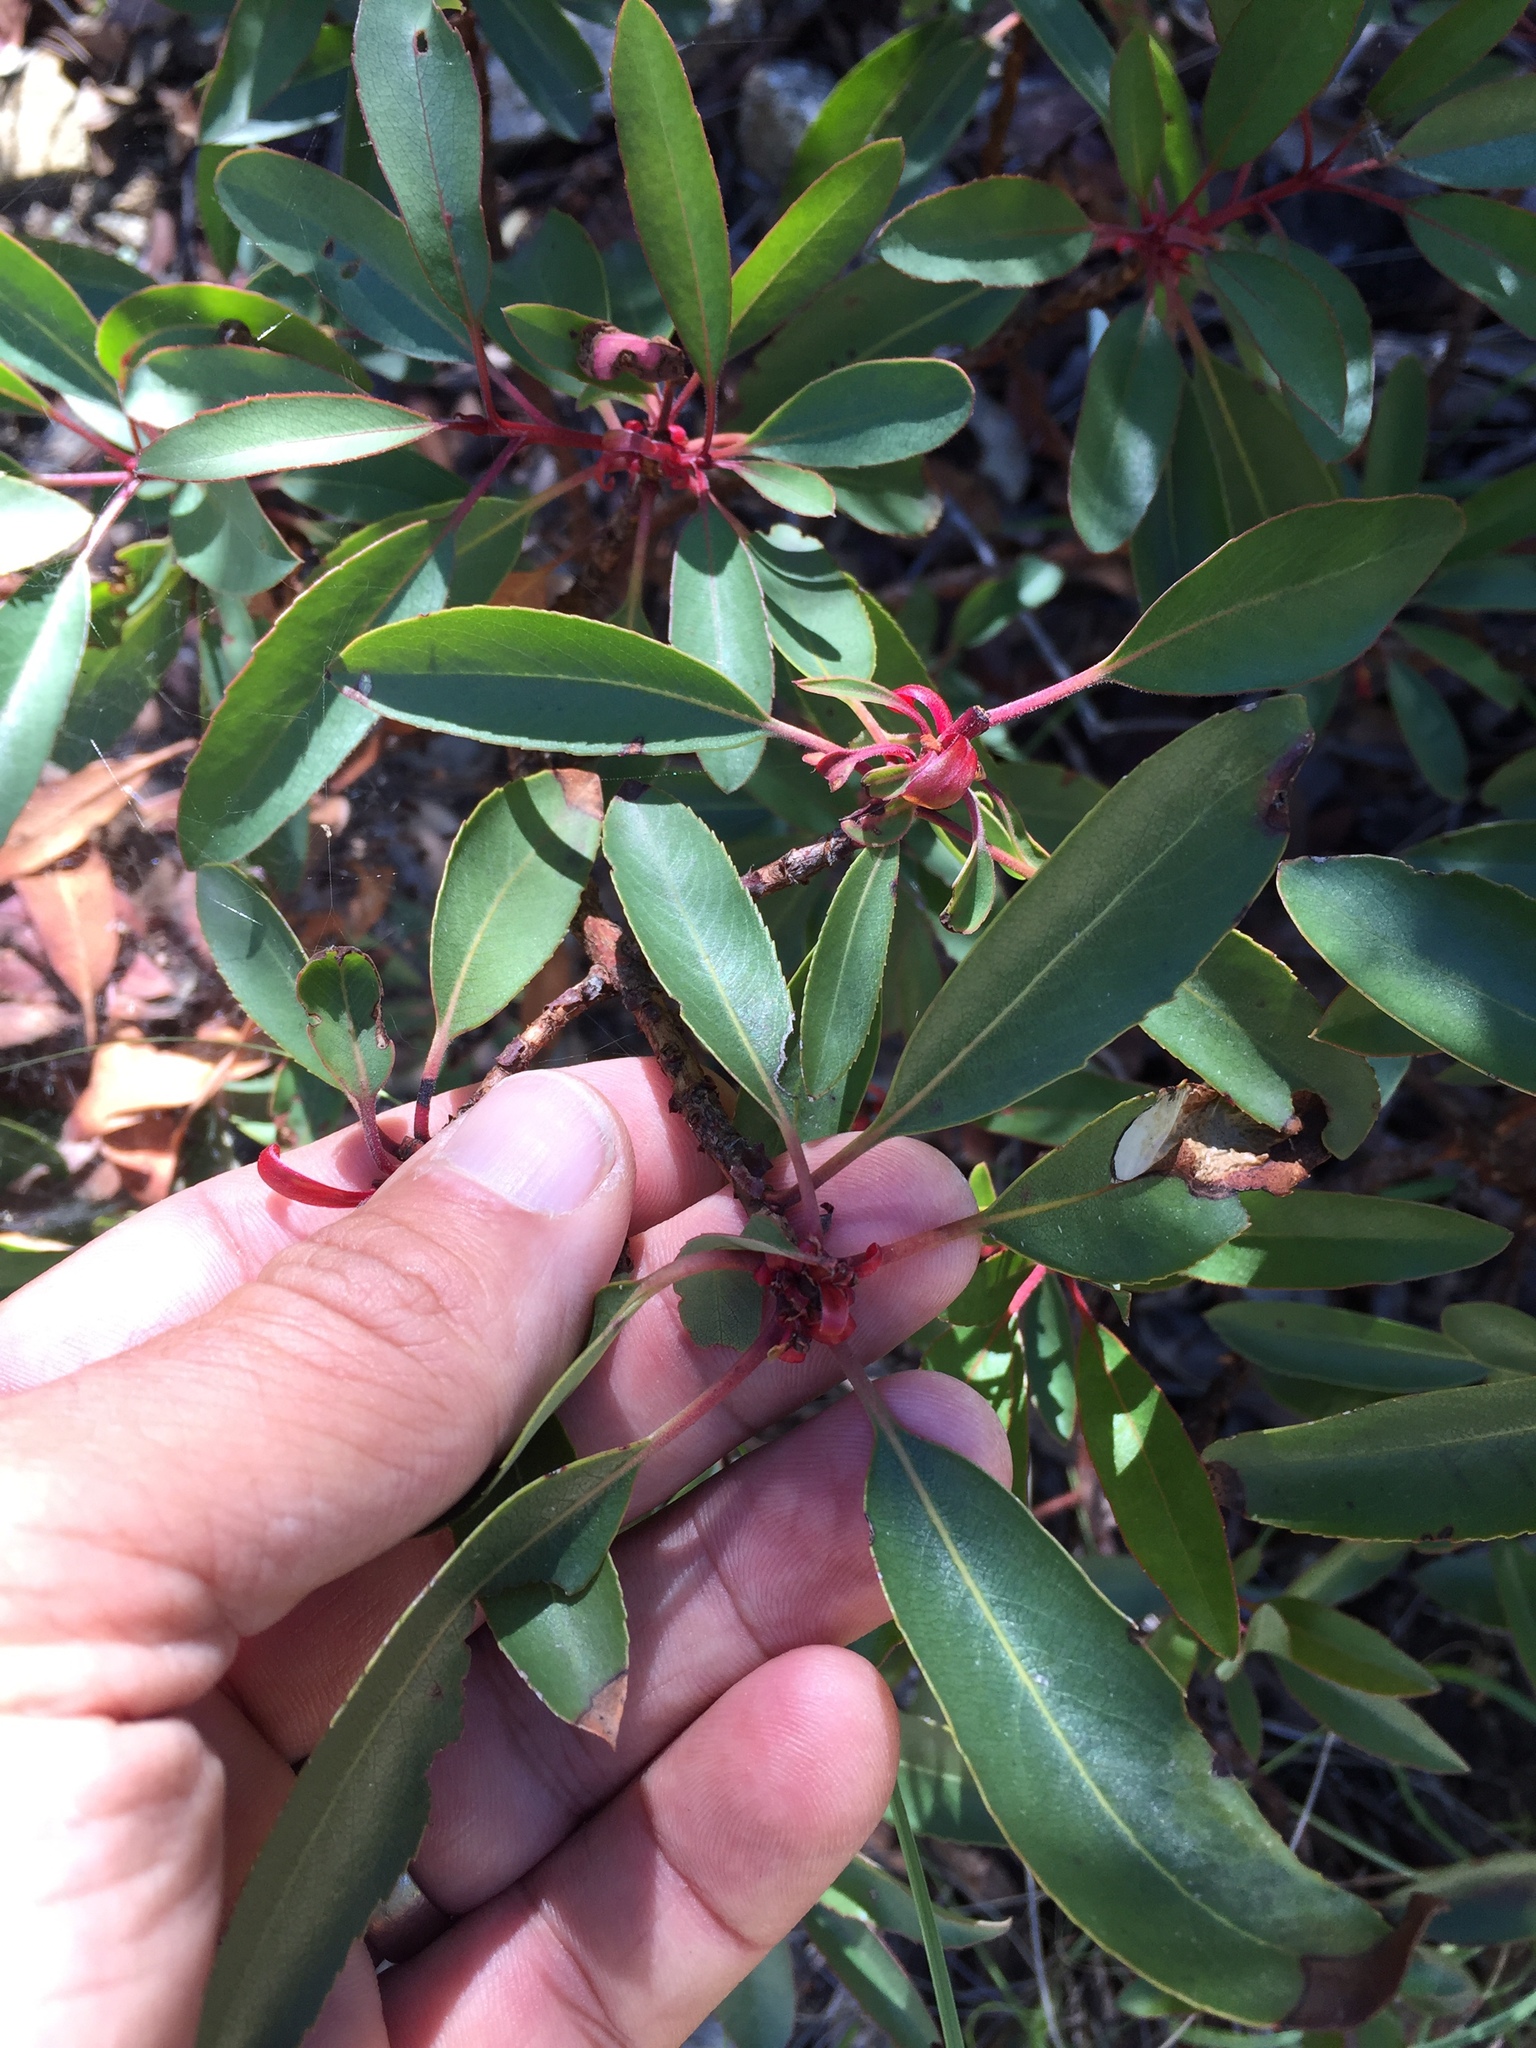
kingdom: Plantae
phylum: Tracheophyta
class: Magnoliopsida
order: Ericales
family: Ericaceae
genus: Arbutus
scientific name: Arbutus arizonica
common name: Arizona madrone
